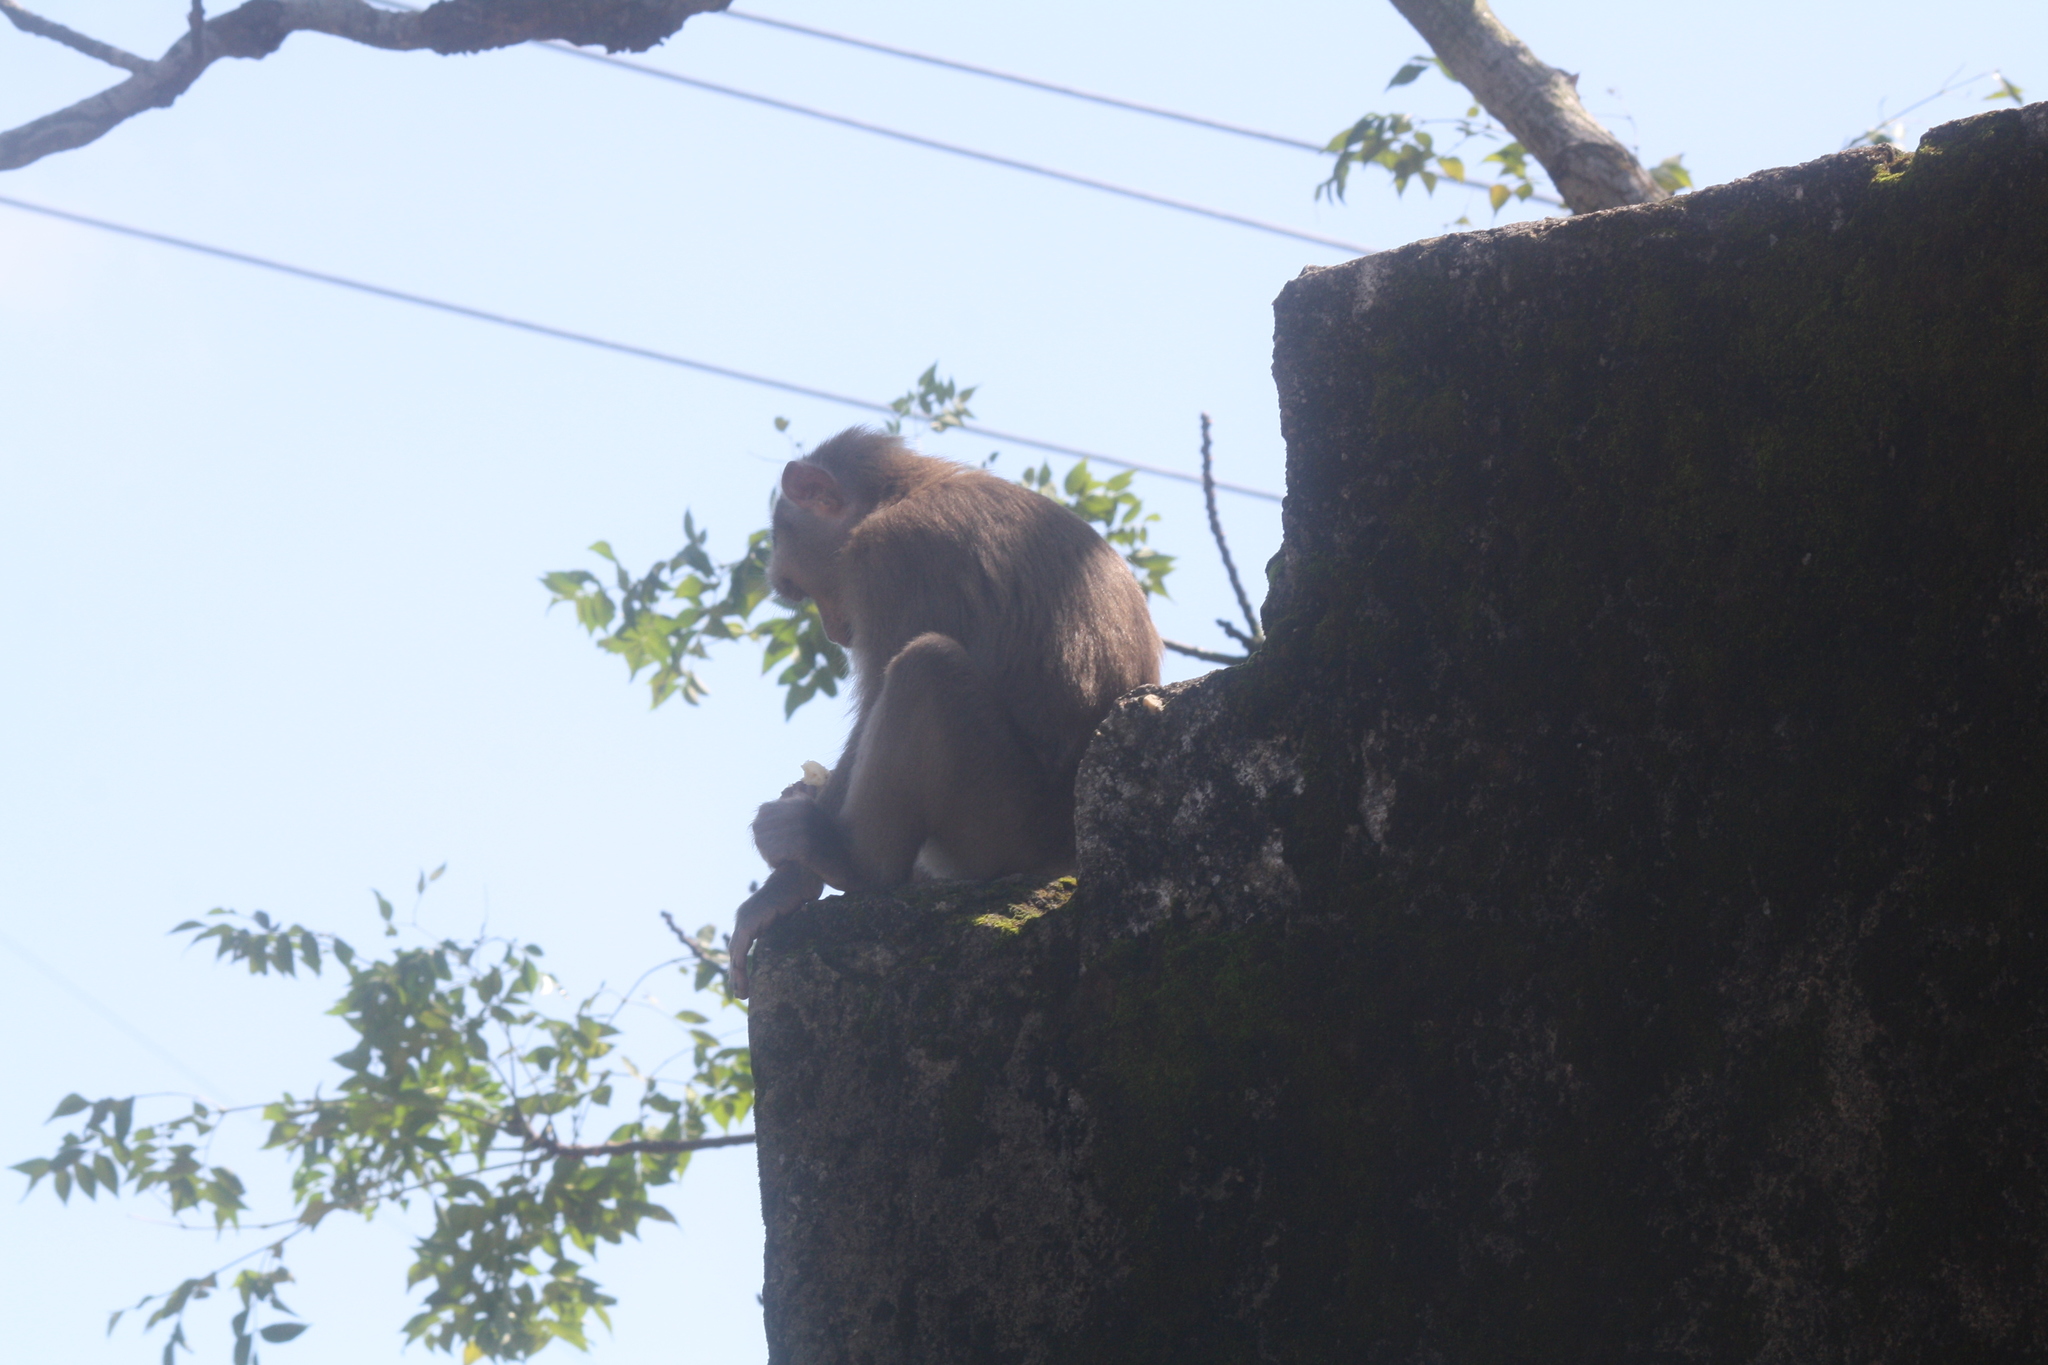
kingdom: Animalia
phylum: Chordata
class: Mammalia
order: Primates
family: Cercopithecidae
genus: Macaca
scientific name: Macaca mulatta
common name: Rhesus monkey
